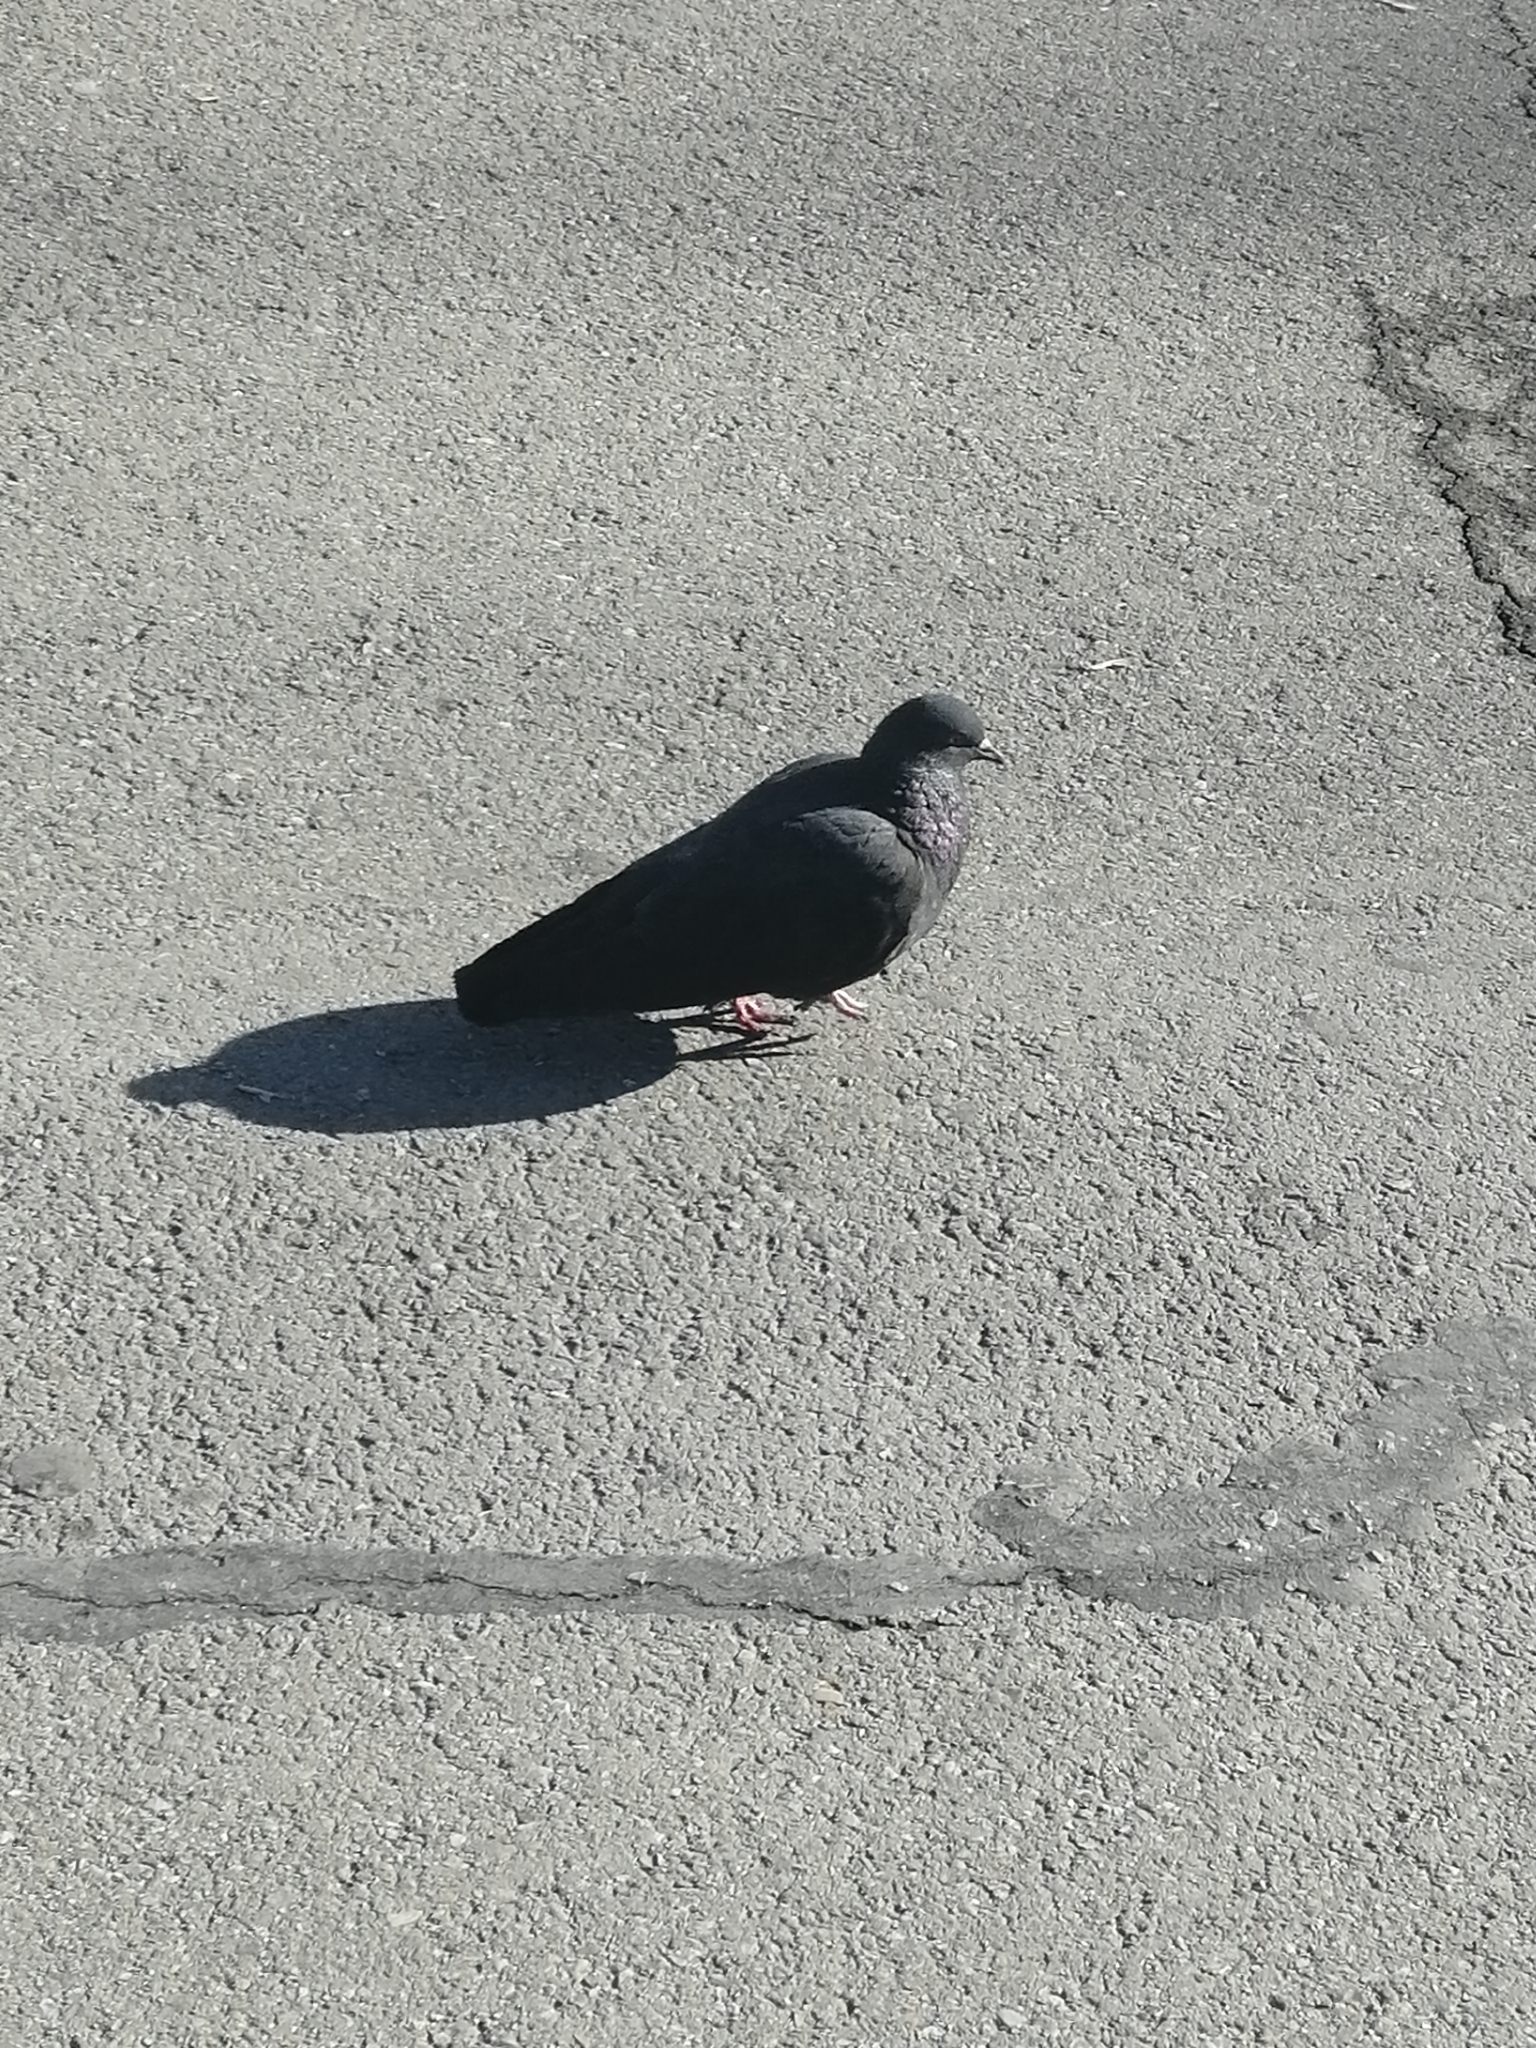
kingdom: Animalia
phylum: Chordata
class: Aves
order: Columbiformes
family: Columbidae
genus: Columba
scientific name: Columba livia
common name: Rock pigeon
